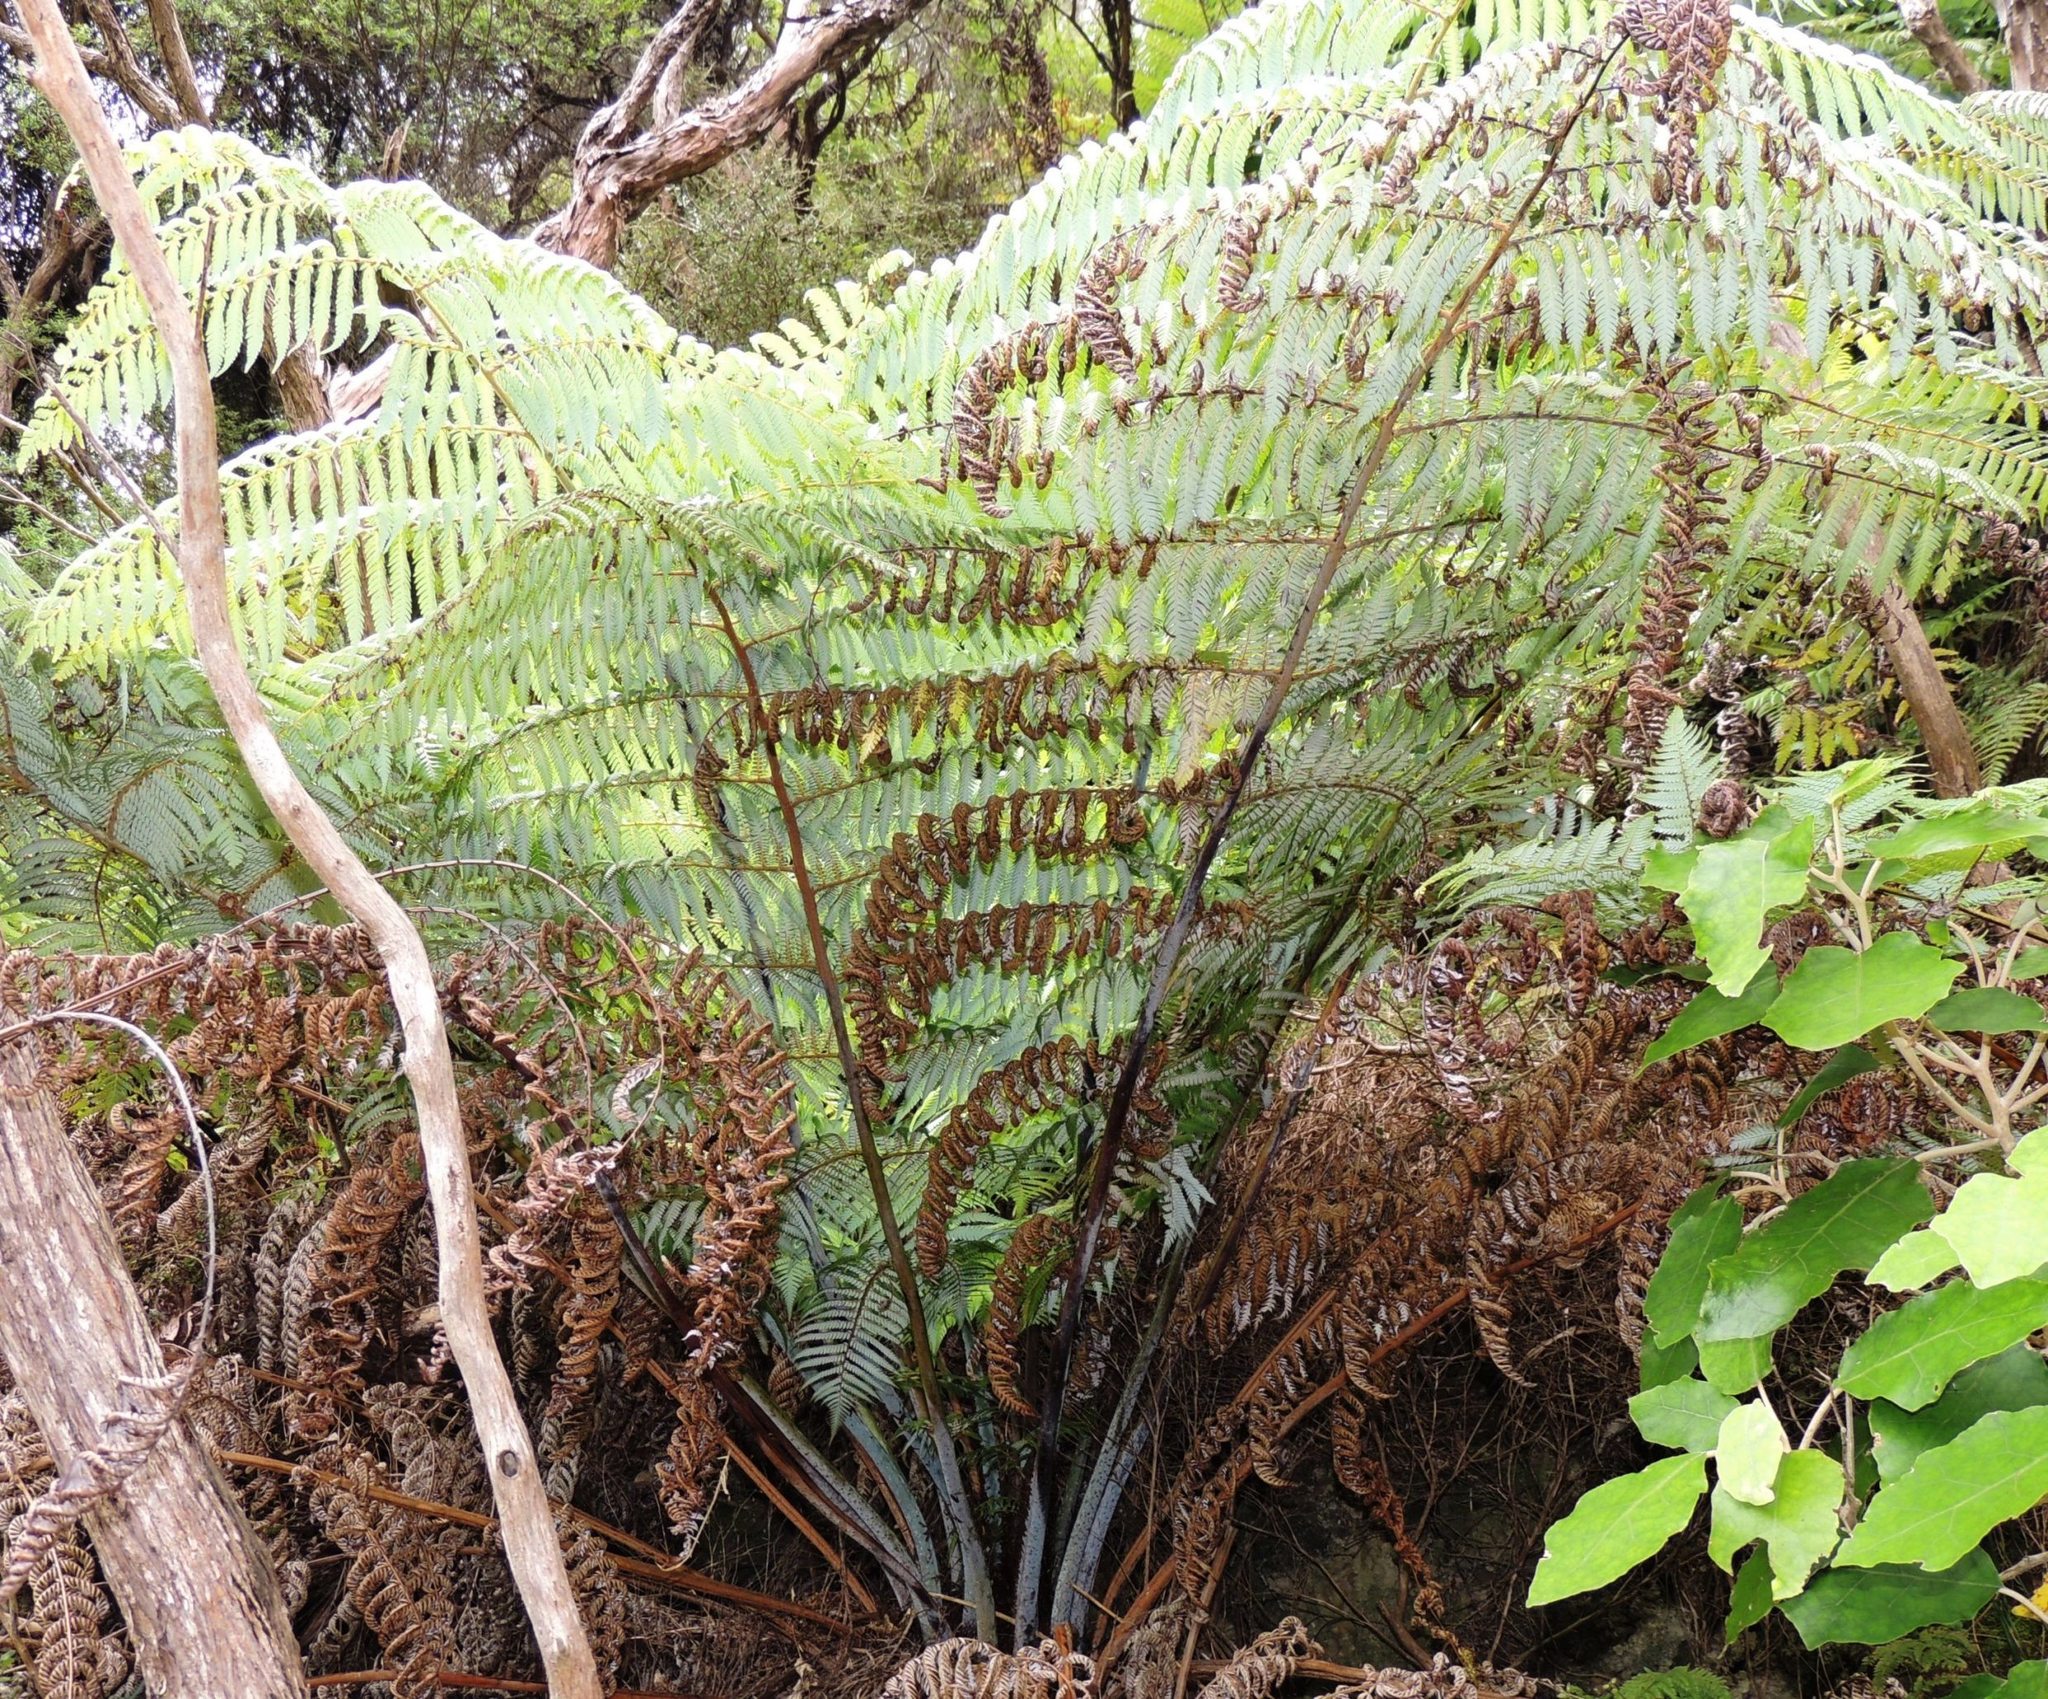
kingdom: Plantae
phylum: Tracheophyta
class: Polypodiopsida
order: Cyatheales
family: Cyatheaceae
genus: Alsophila
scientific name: Alsophila dealbata
